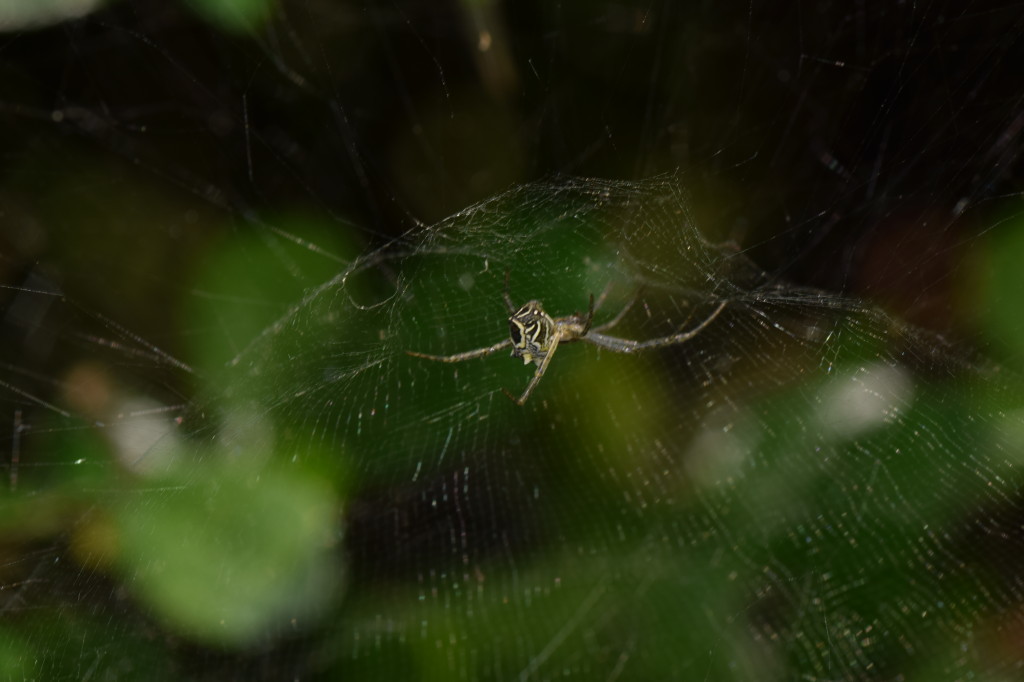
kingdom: Animalia
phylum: Arthropoda
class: Arachnida
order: Araneae
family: Araneidae
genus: Cyrtophora
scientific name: Cyrtophora cicatrosa
